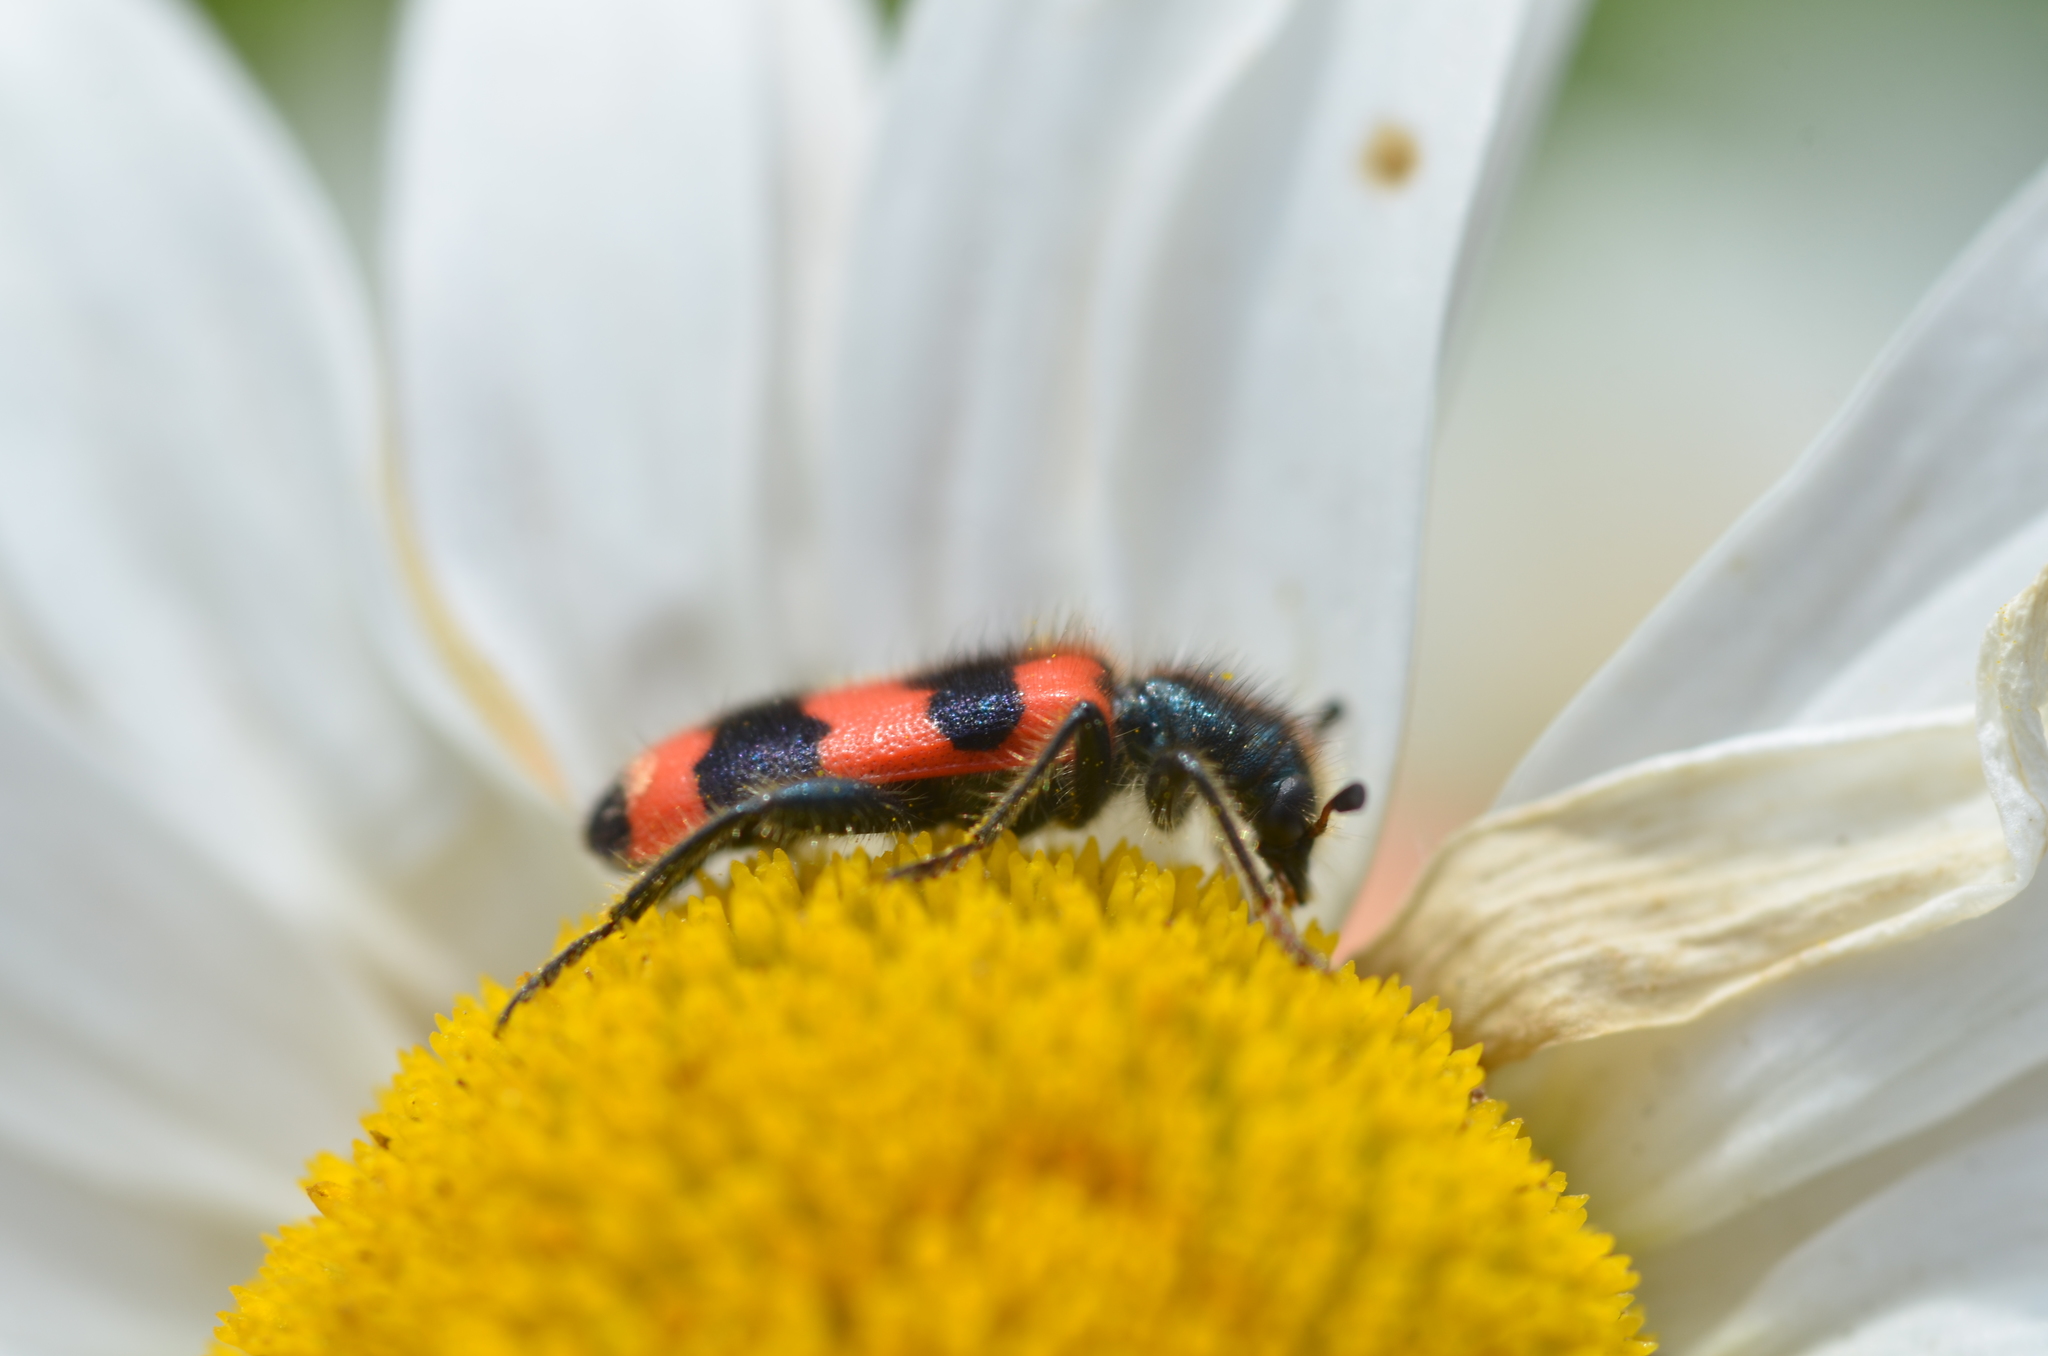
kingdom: Animalia
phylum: Arthropoda
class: Insecta
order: Coleoptera
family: Cleridae
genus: Trichodes
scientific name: Trichodes apiarius
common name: Bee-eating beetle
